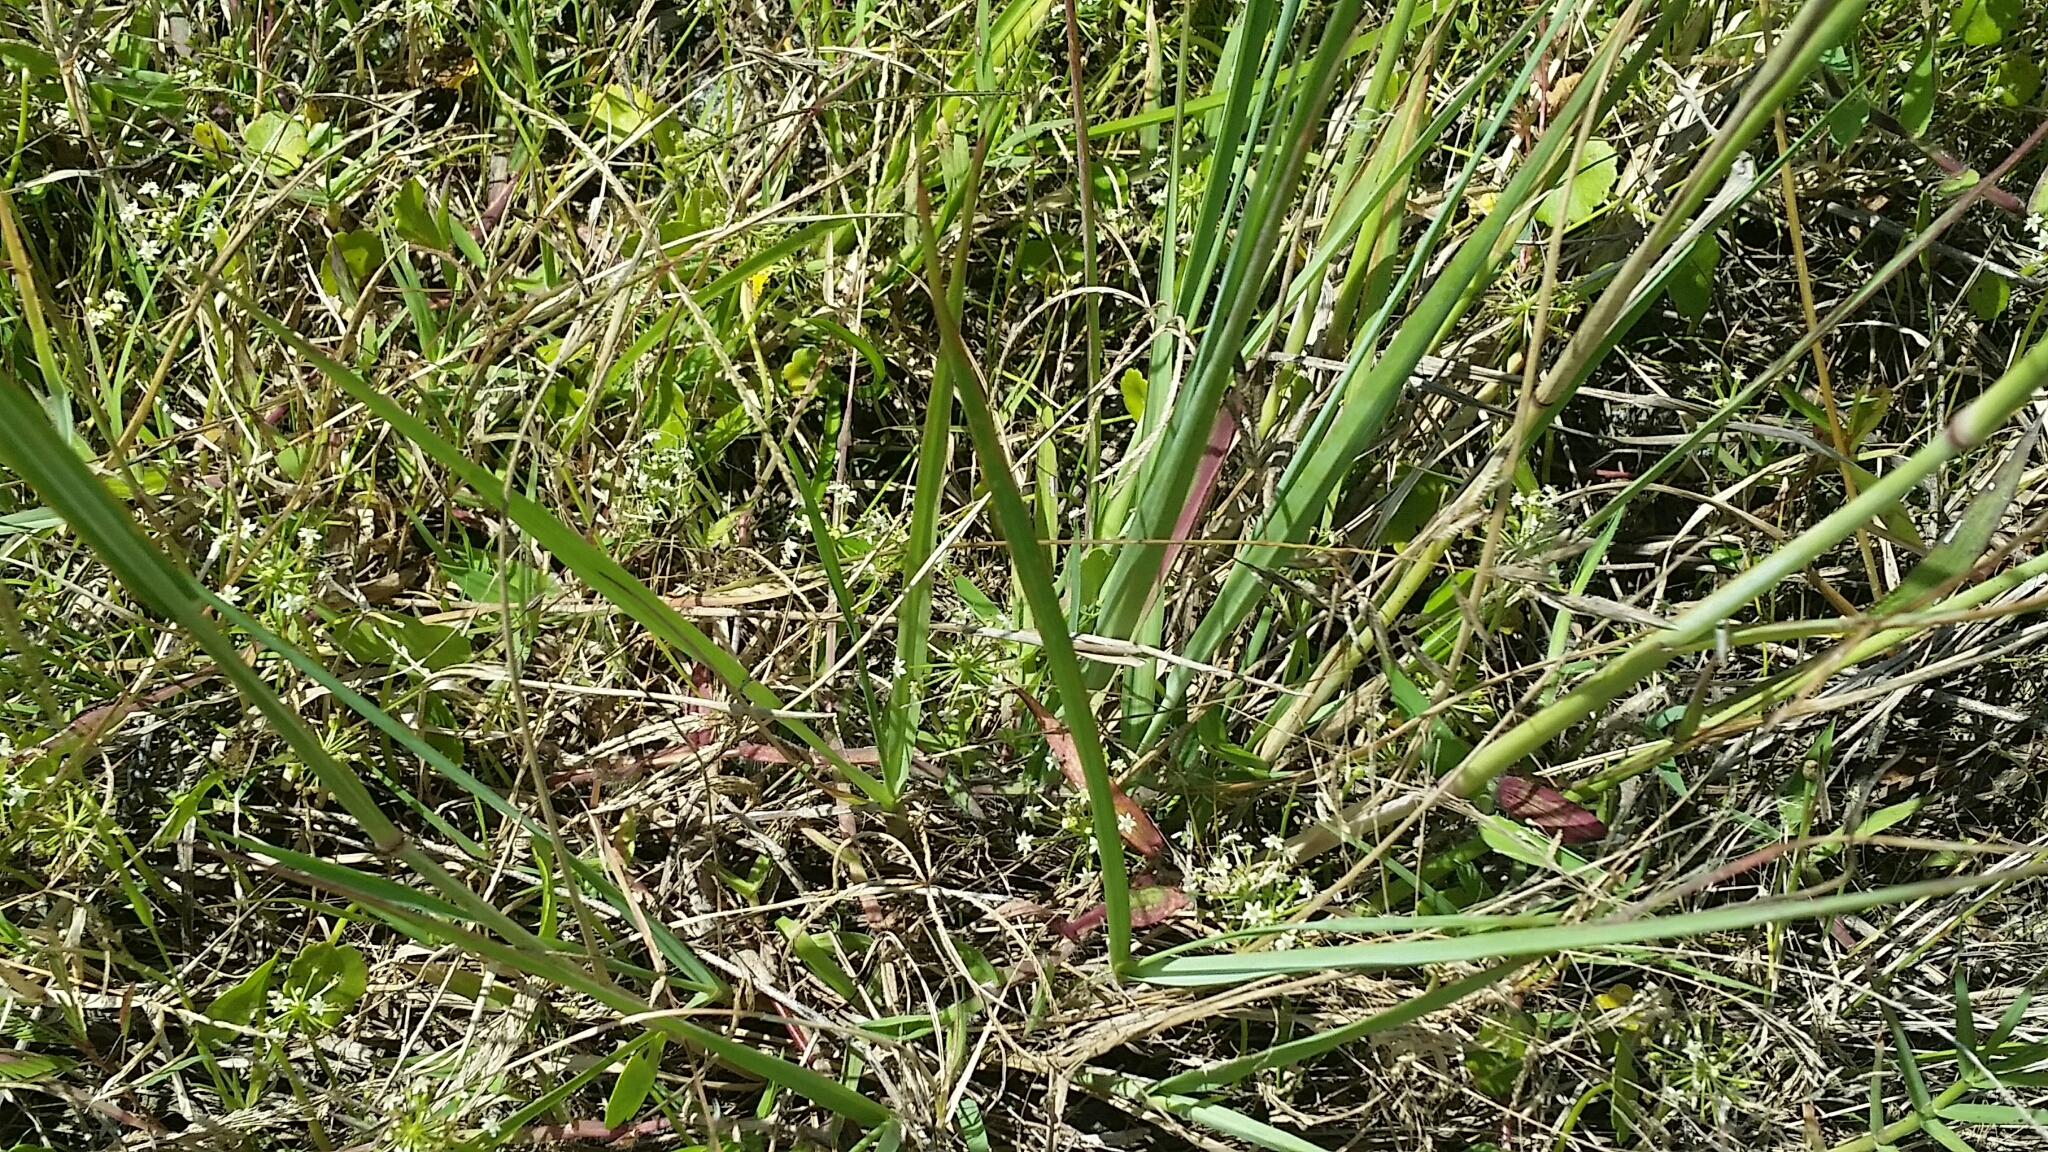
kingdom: Plantae
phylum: Tracheophyta
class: Liliopsida
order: Poales
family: Poaceae
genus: Eragrostis
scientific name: Eragrostis atrovirens
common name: Thalia lovegrass
